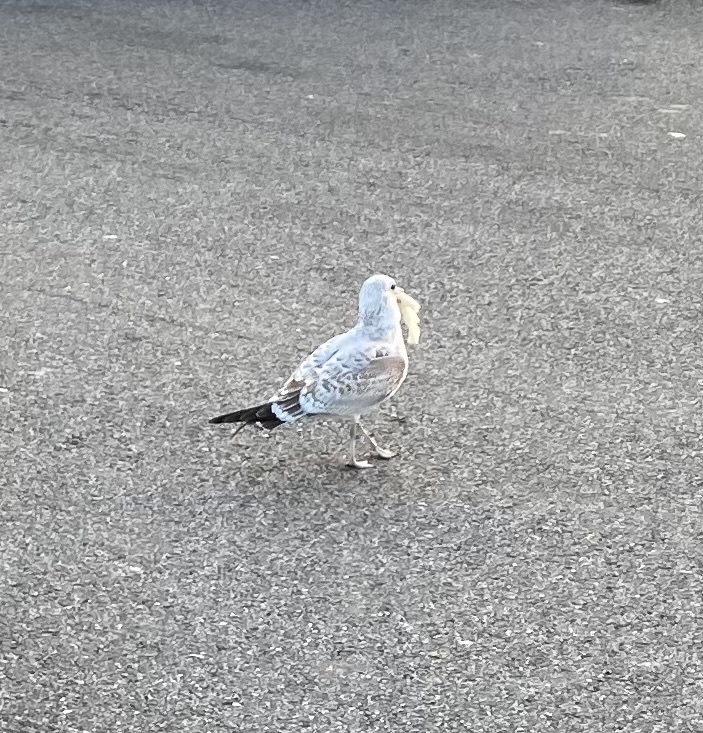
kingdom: Animalia
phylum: Chordata
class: Aves
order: Charadriiformes
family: Laridae
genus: Larus
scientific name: Larus delawarensis
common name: Ring-billed gull
